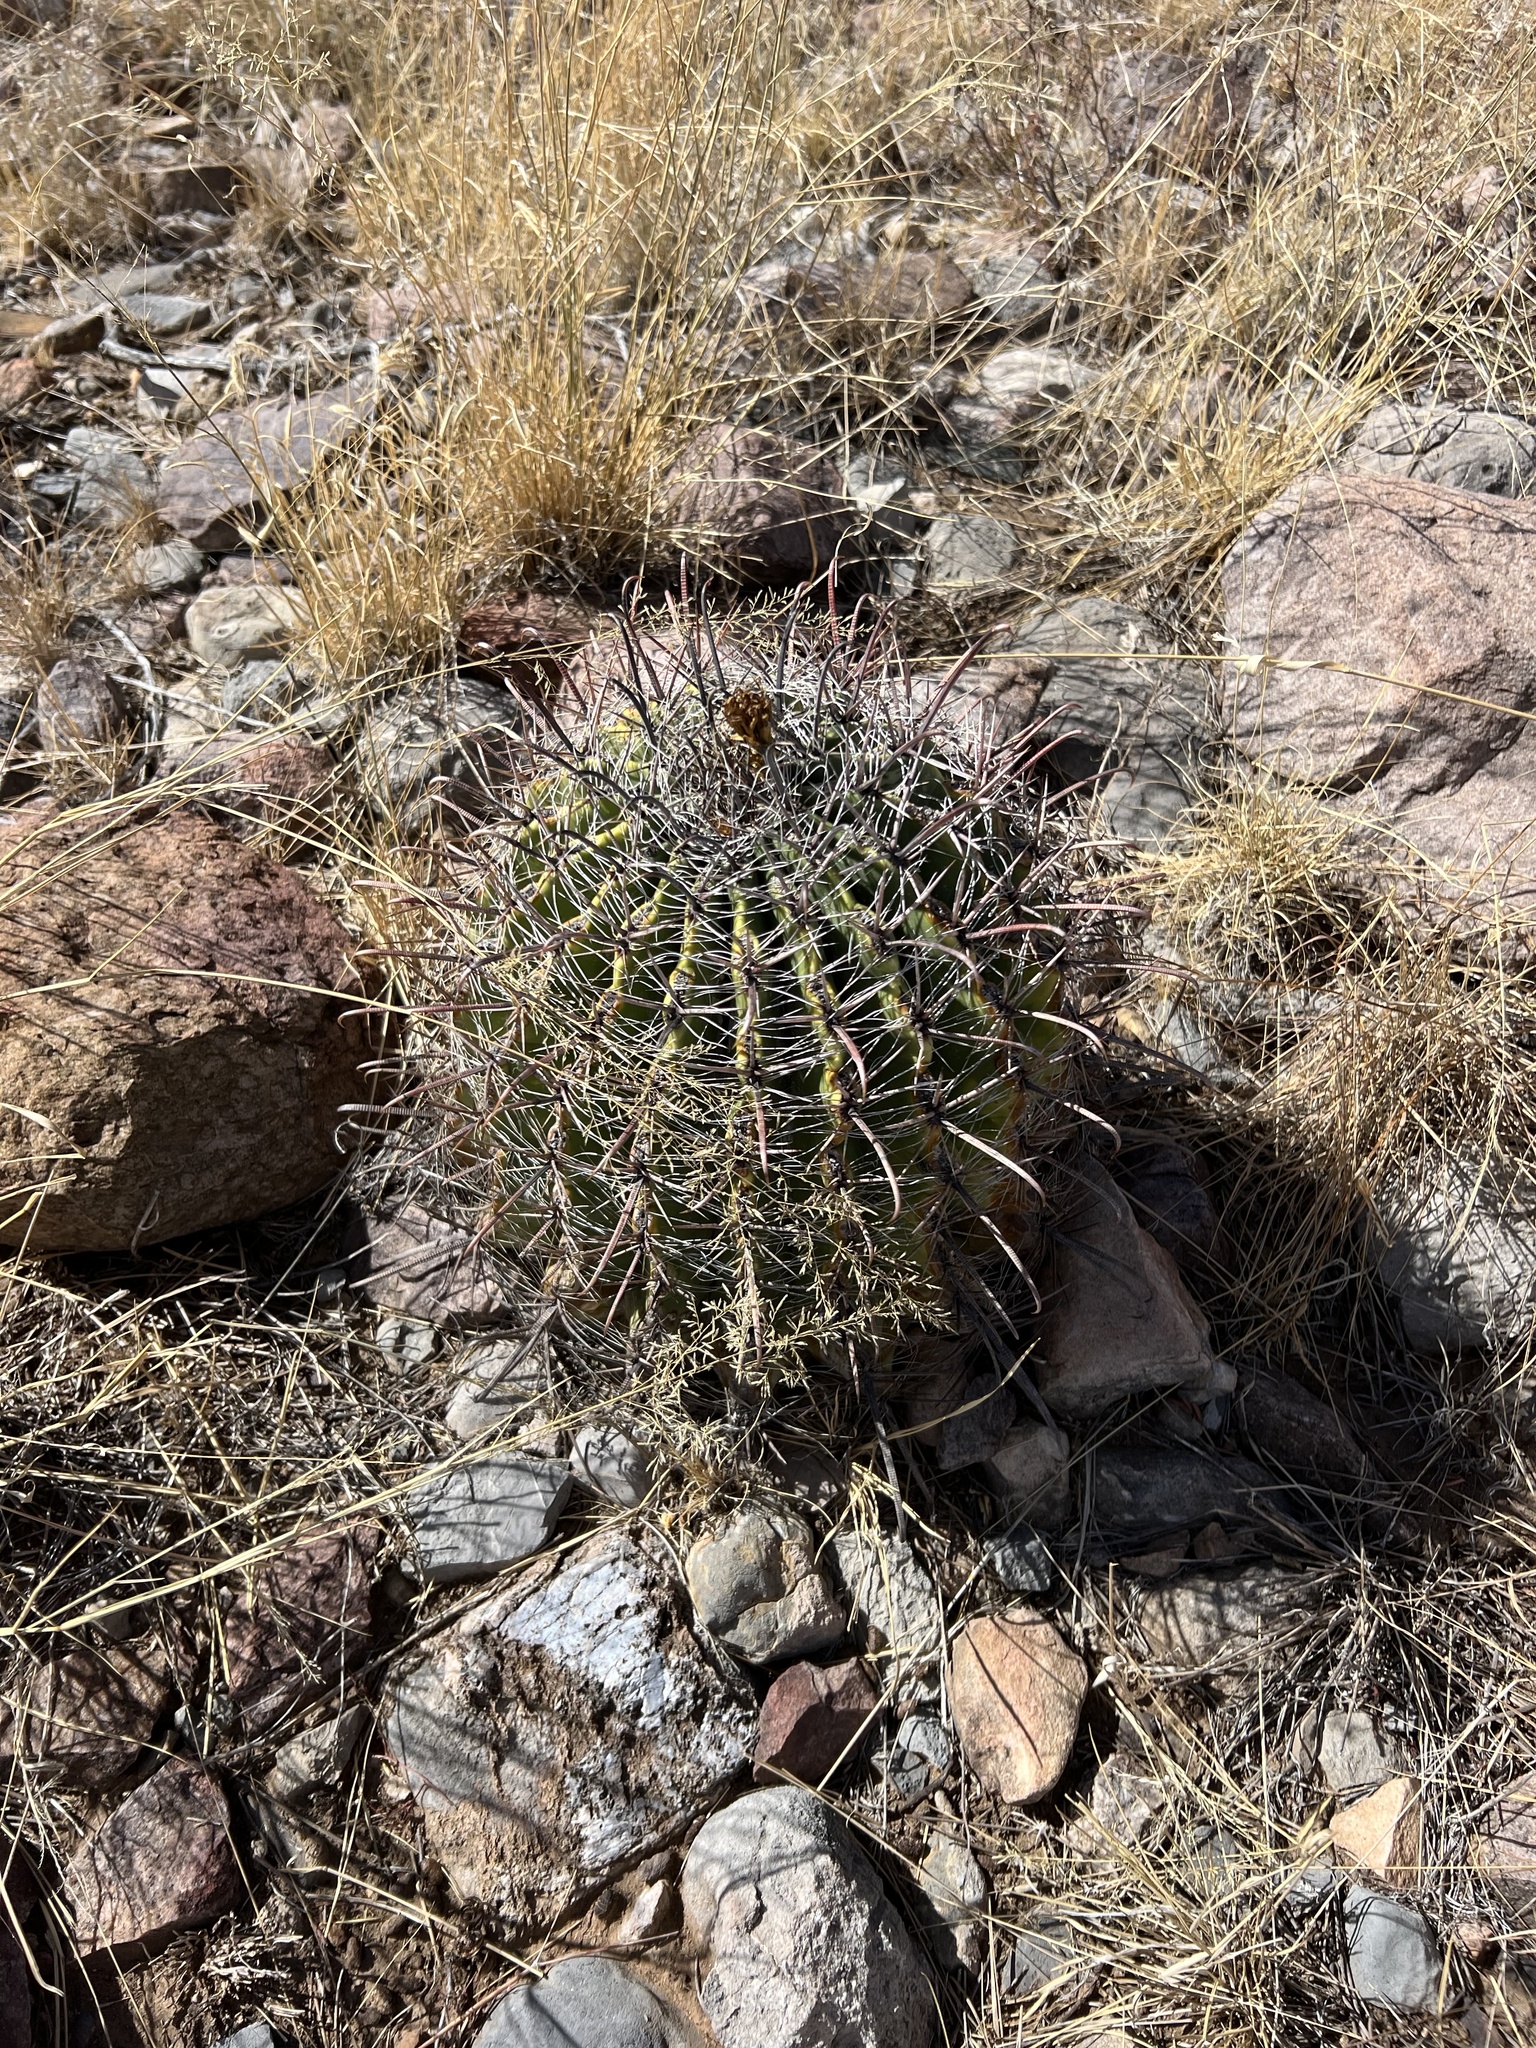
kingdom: Plantae
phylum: Tracheophyta
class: Magnoliopsida
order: Caryophyllales
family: Cactaceae
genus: Ferocactus
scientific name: Ferocactus wislizeni
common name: Candy barrel cactus
